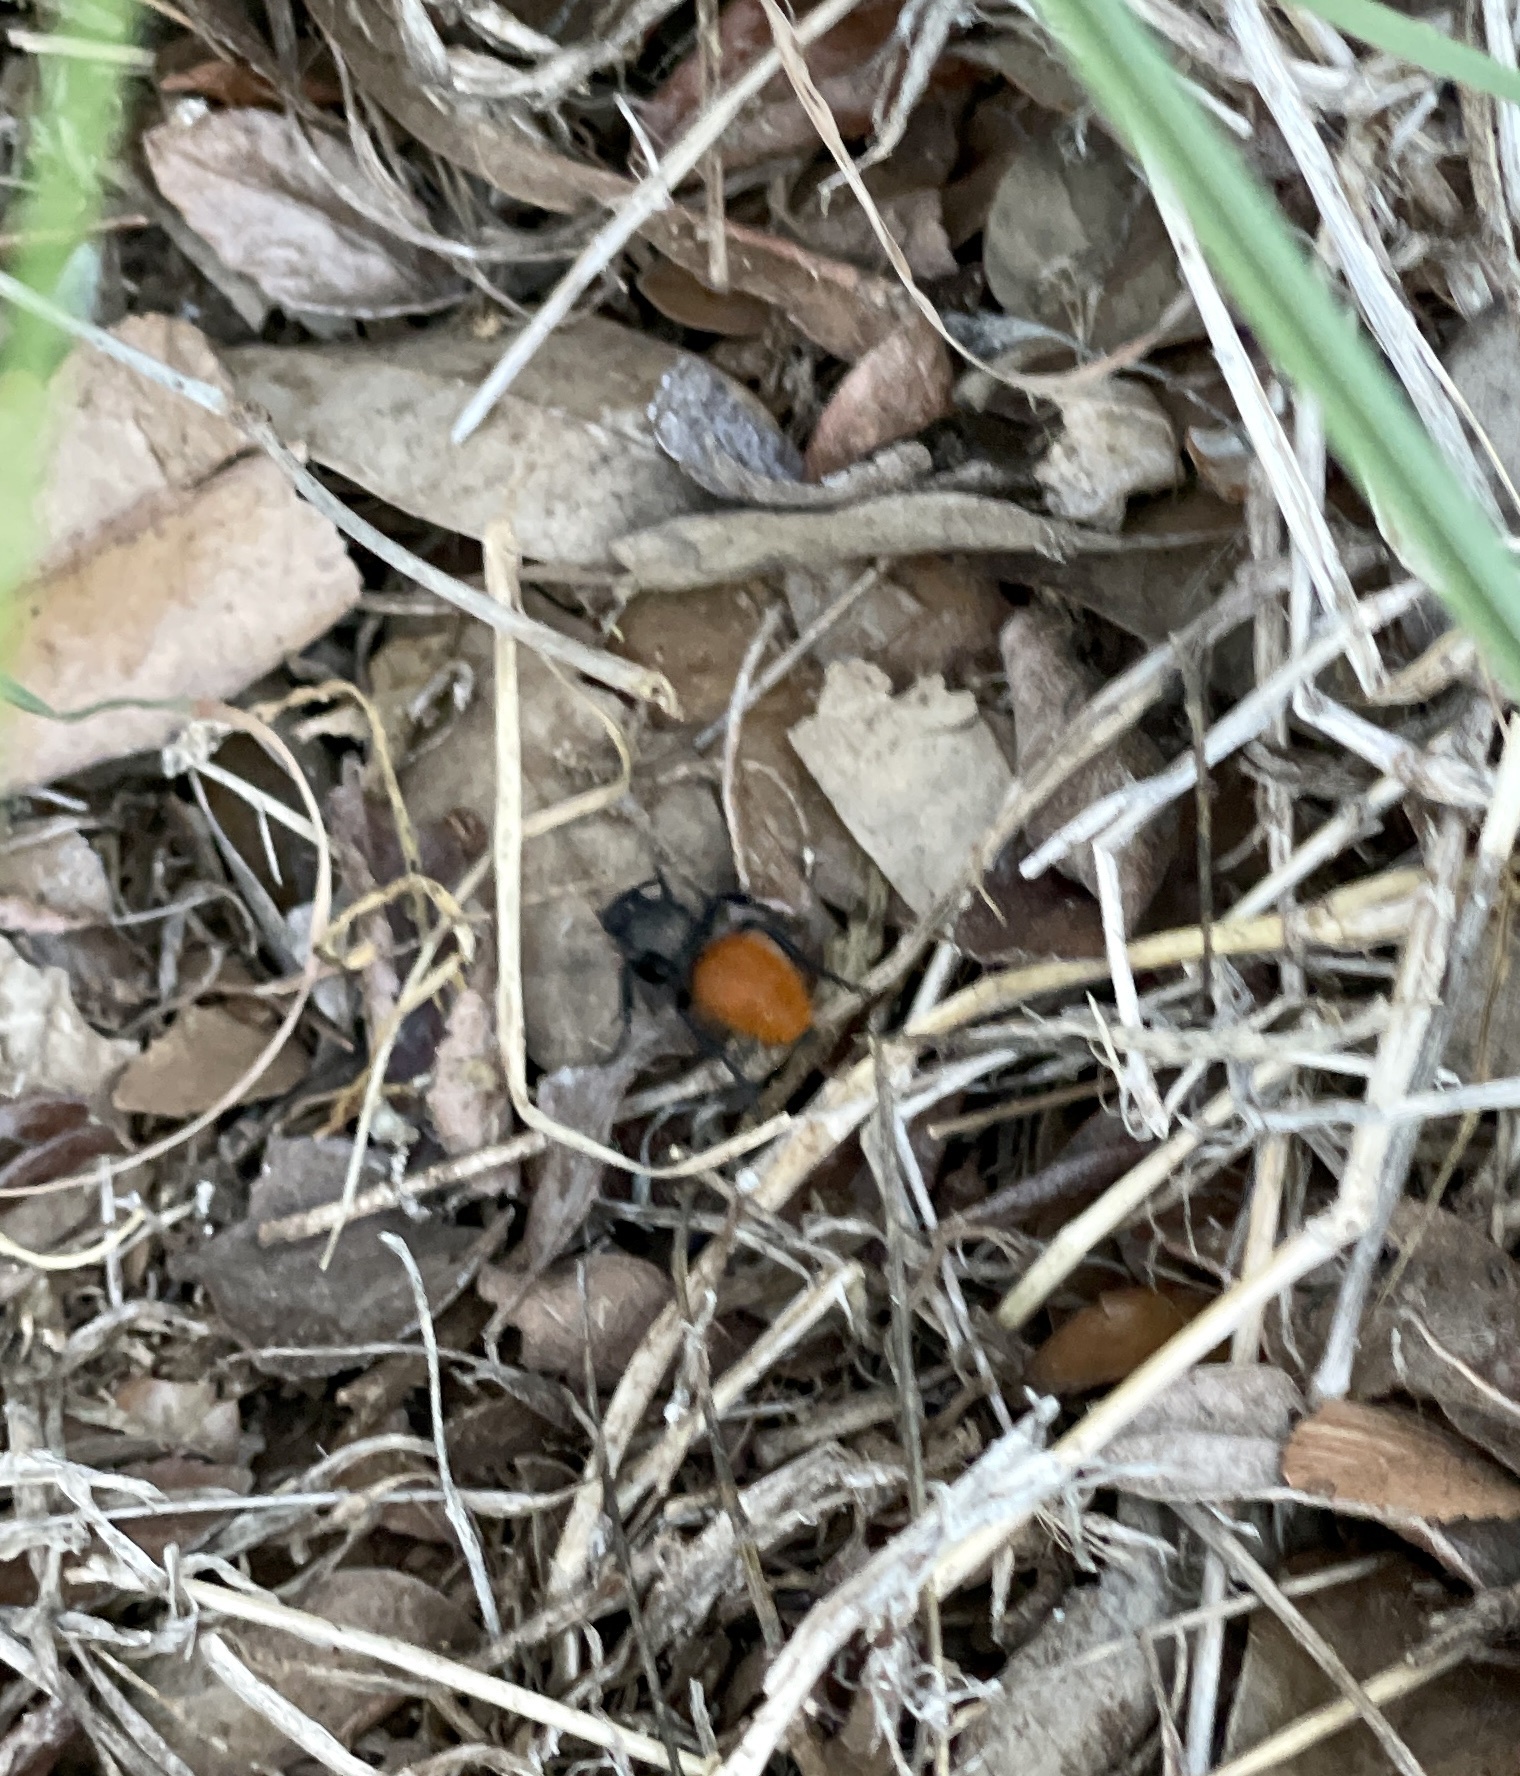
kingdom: Animalia
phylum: Arthropoda
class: Insecta
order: Hymenoptera
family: Mutillidae
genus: Dasymutilla
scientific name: Dasymutilla
